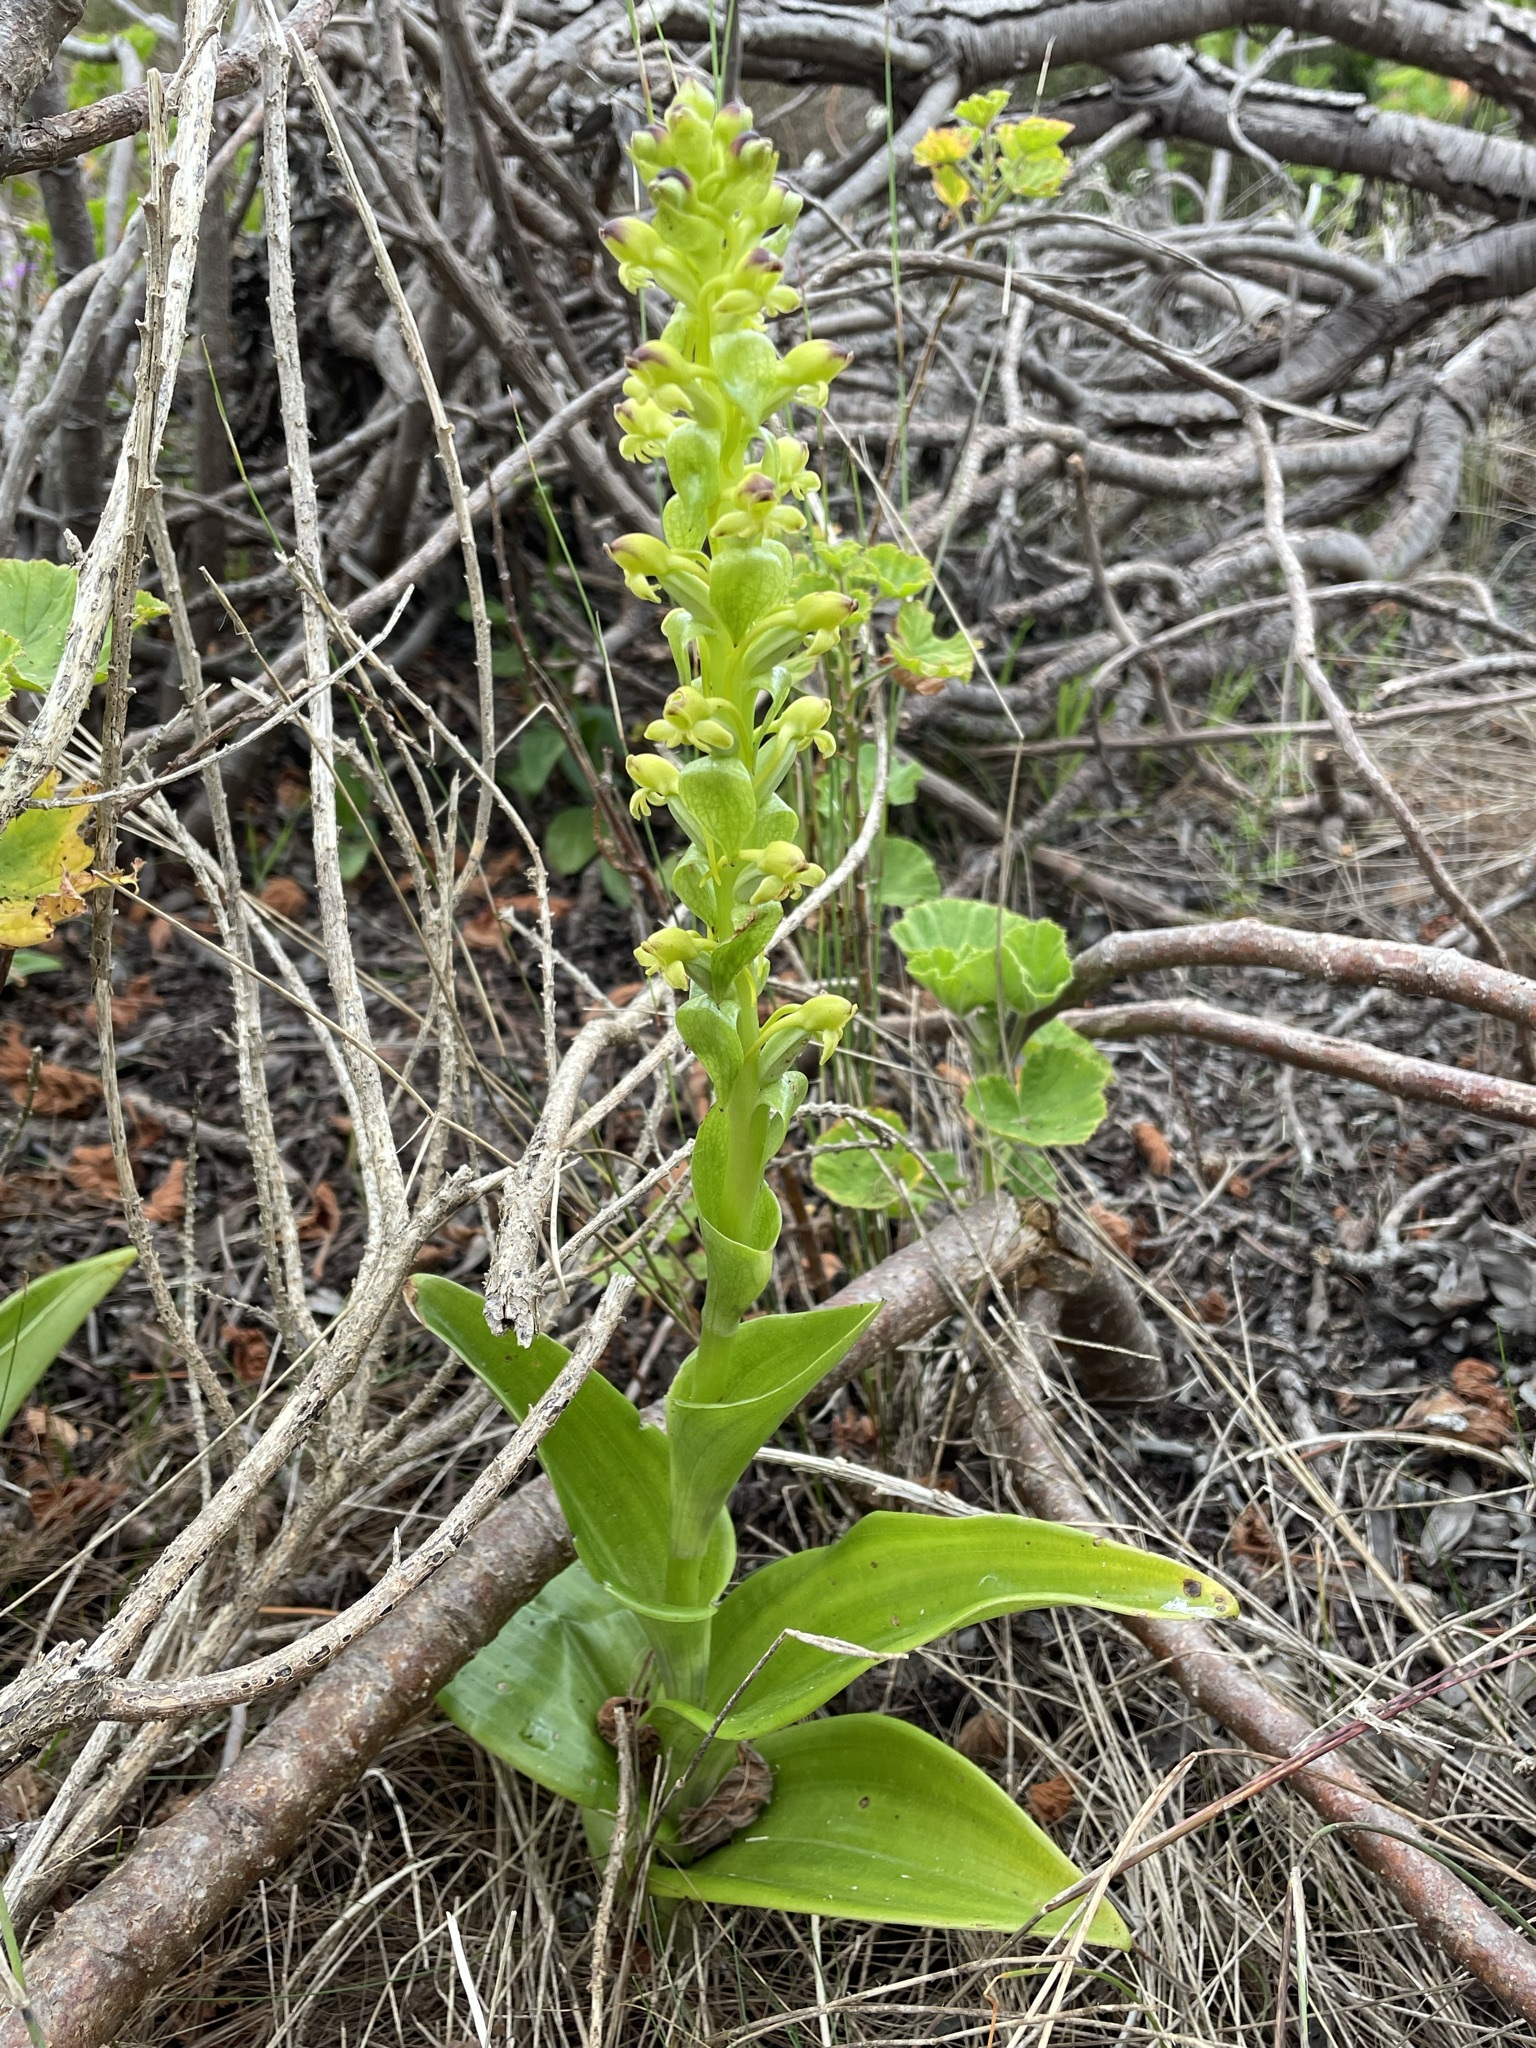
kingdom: Plantae
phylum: Tracheophyta
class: Liliopsida
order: Asparagales
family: Orchidaceae
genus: Satyrium
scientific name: Satyrium odorum
